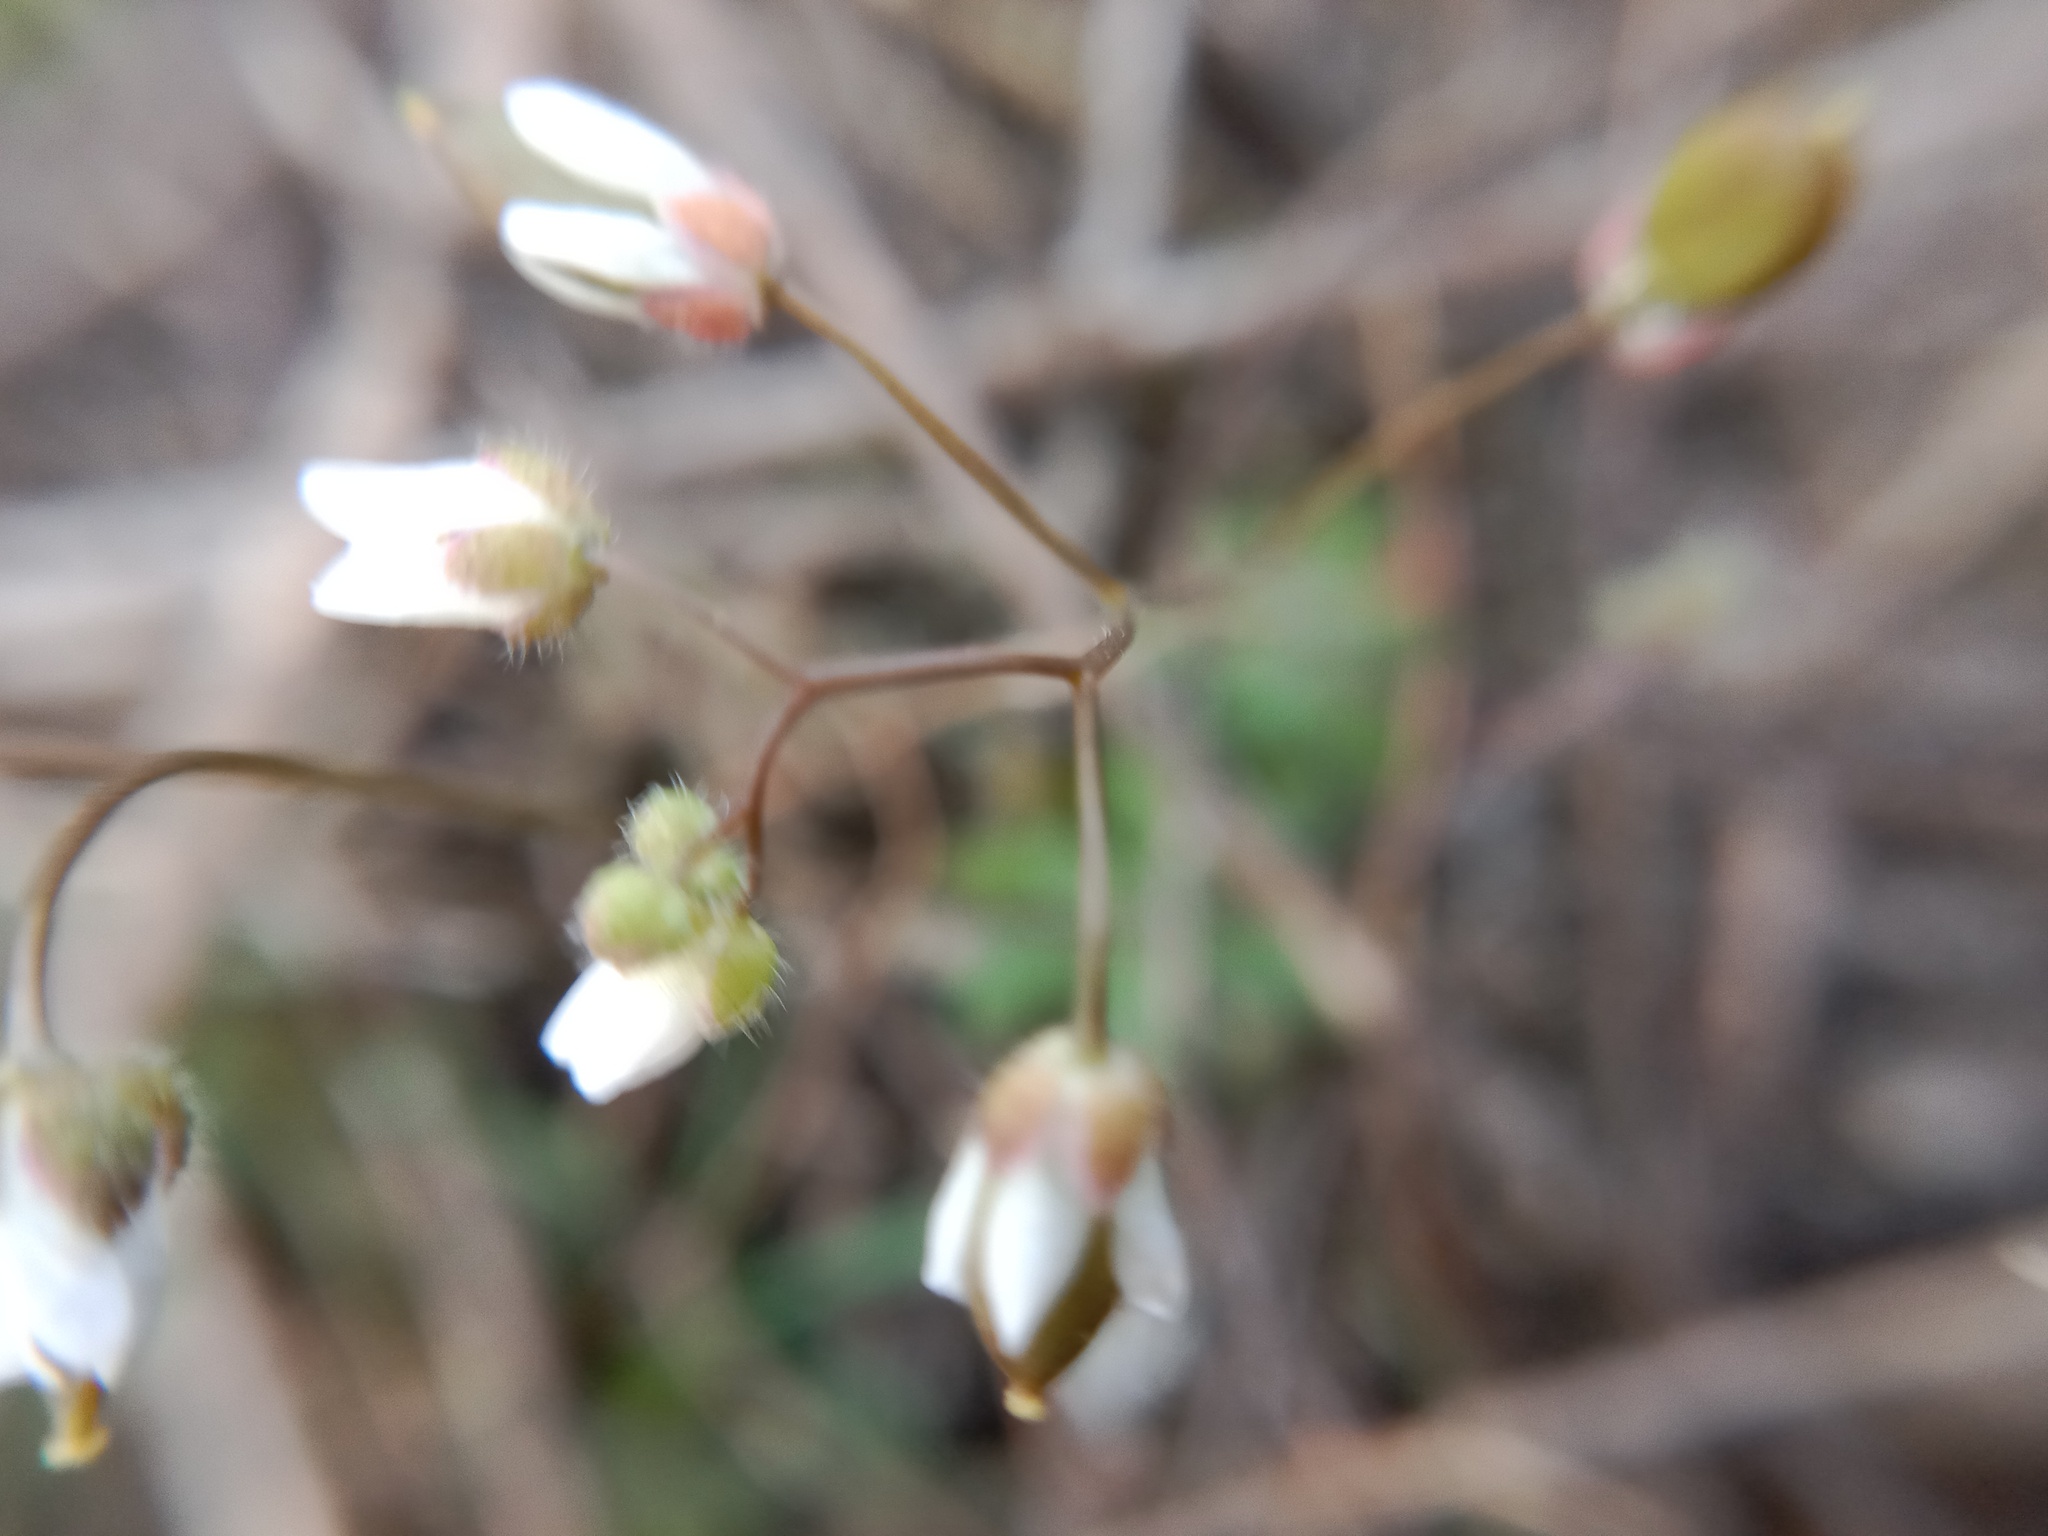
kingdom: Plantae
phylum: Tracheophyta
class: Magnoliopsida
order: Brassicales
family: Brassicaceae
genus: Draba
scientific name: Draba verna
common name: Spring draba
